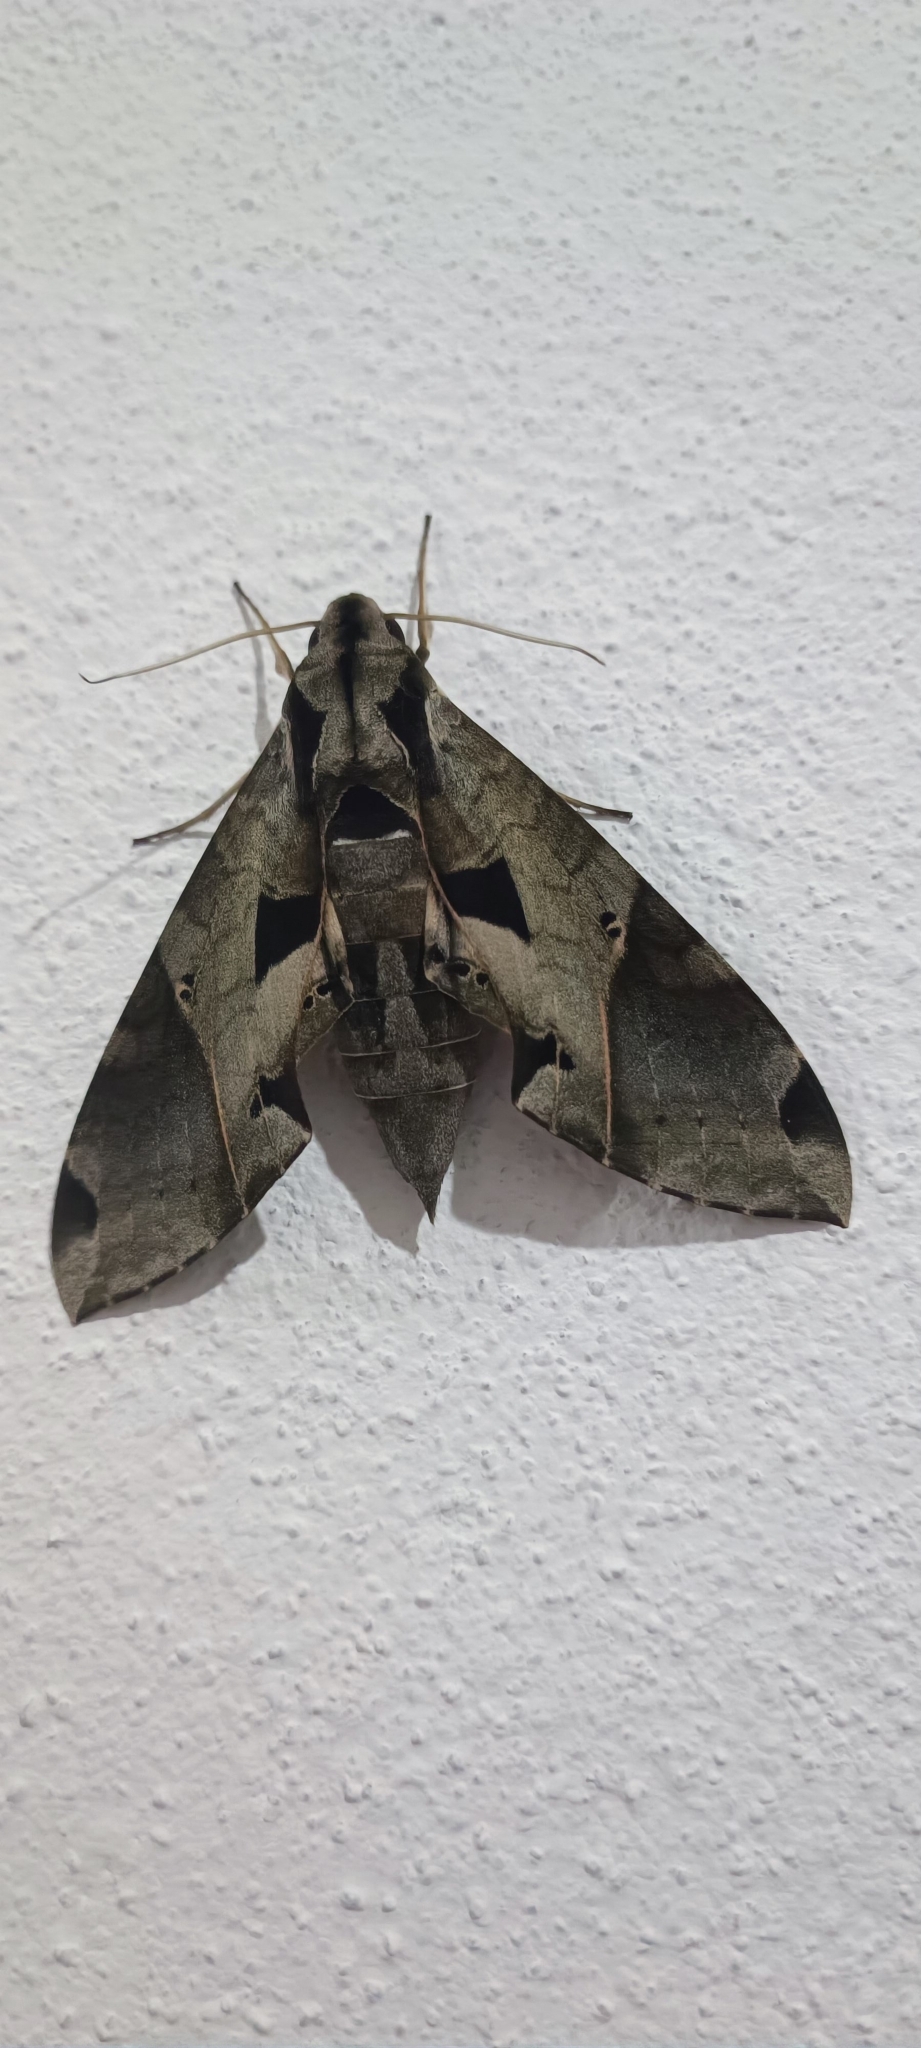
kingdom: Animalia
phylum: Arthropoda
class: Insecta
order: Lepidoptera
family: Sphingidae
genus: Eumorpha
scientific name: Eumorpha satellitia
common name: Satellite sphinx
